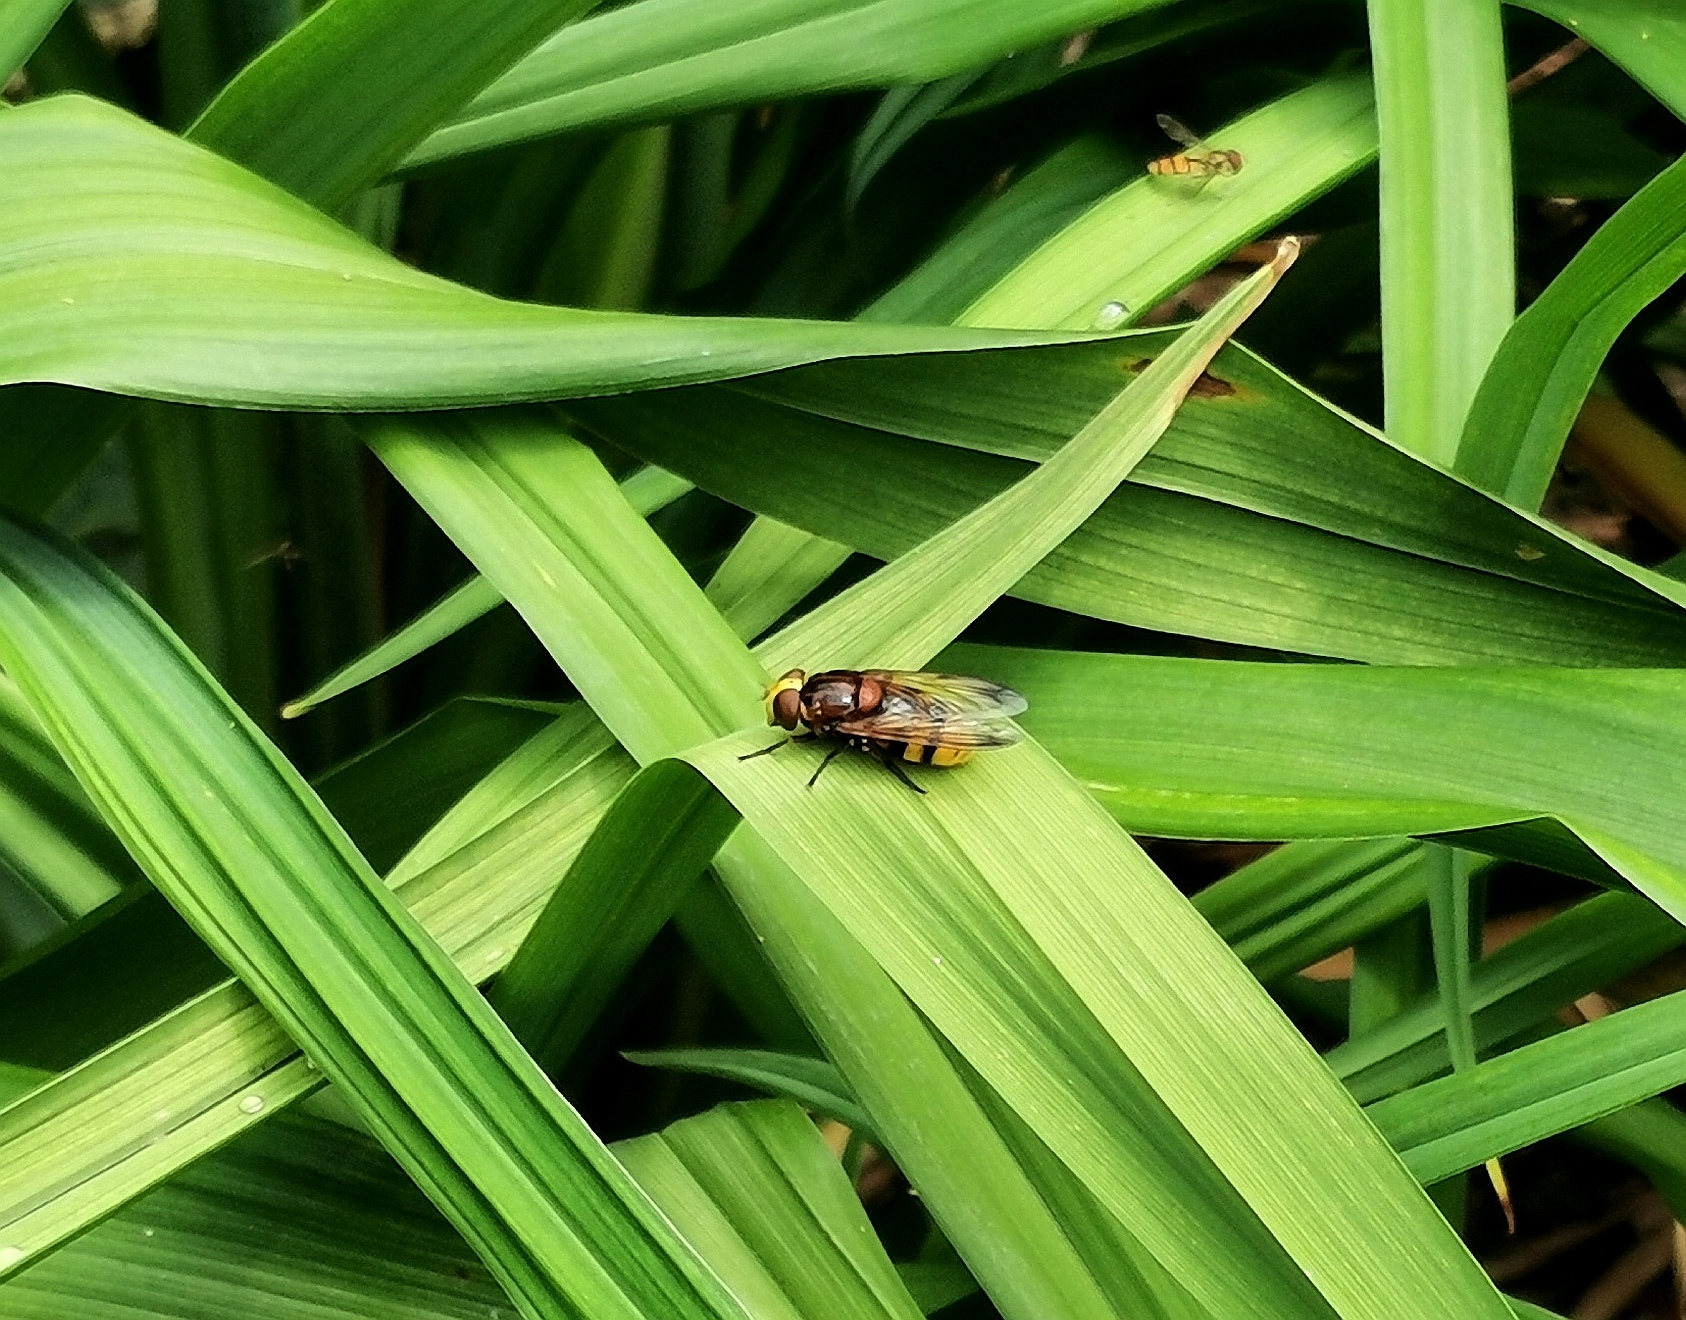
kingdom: Animalia
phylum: Arthropoda
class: Insecta
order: Diptera
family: Syrphidae
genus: Volucella
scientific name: Volucella zonaria
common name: Hornet hoverfly
